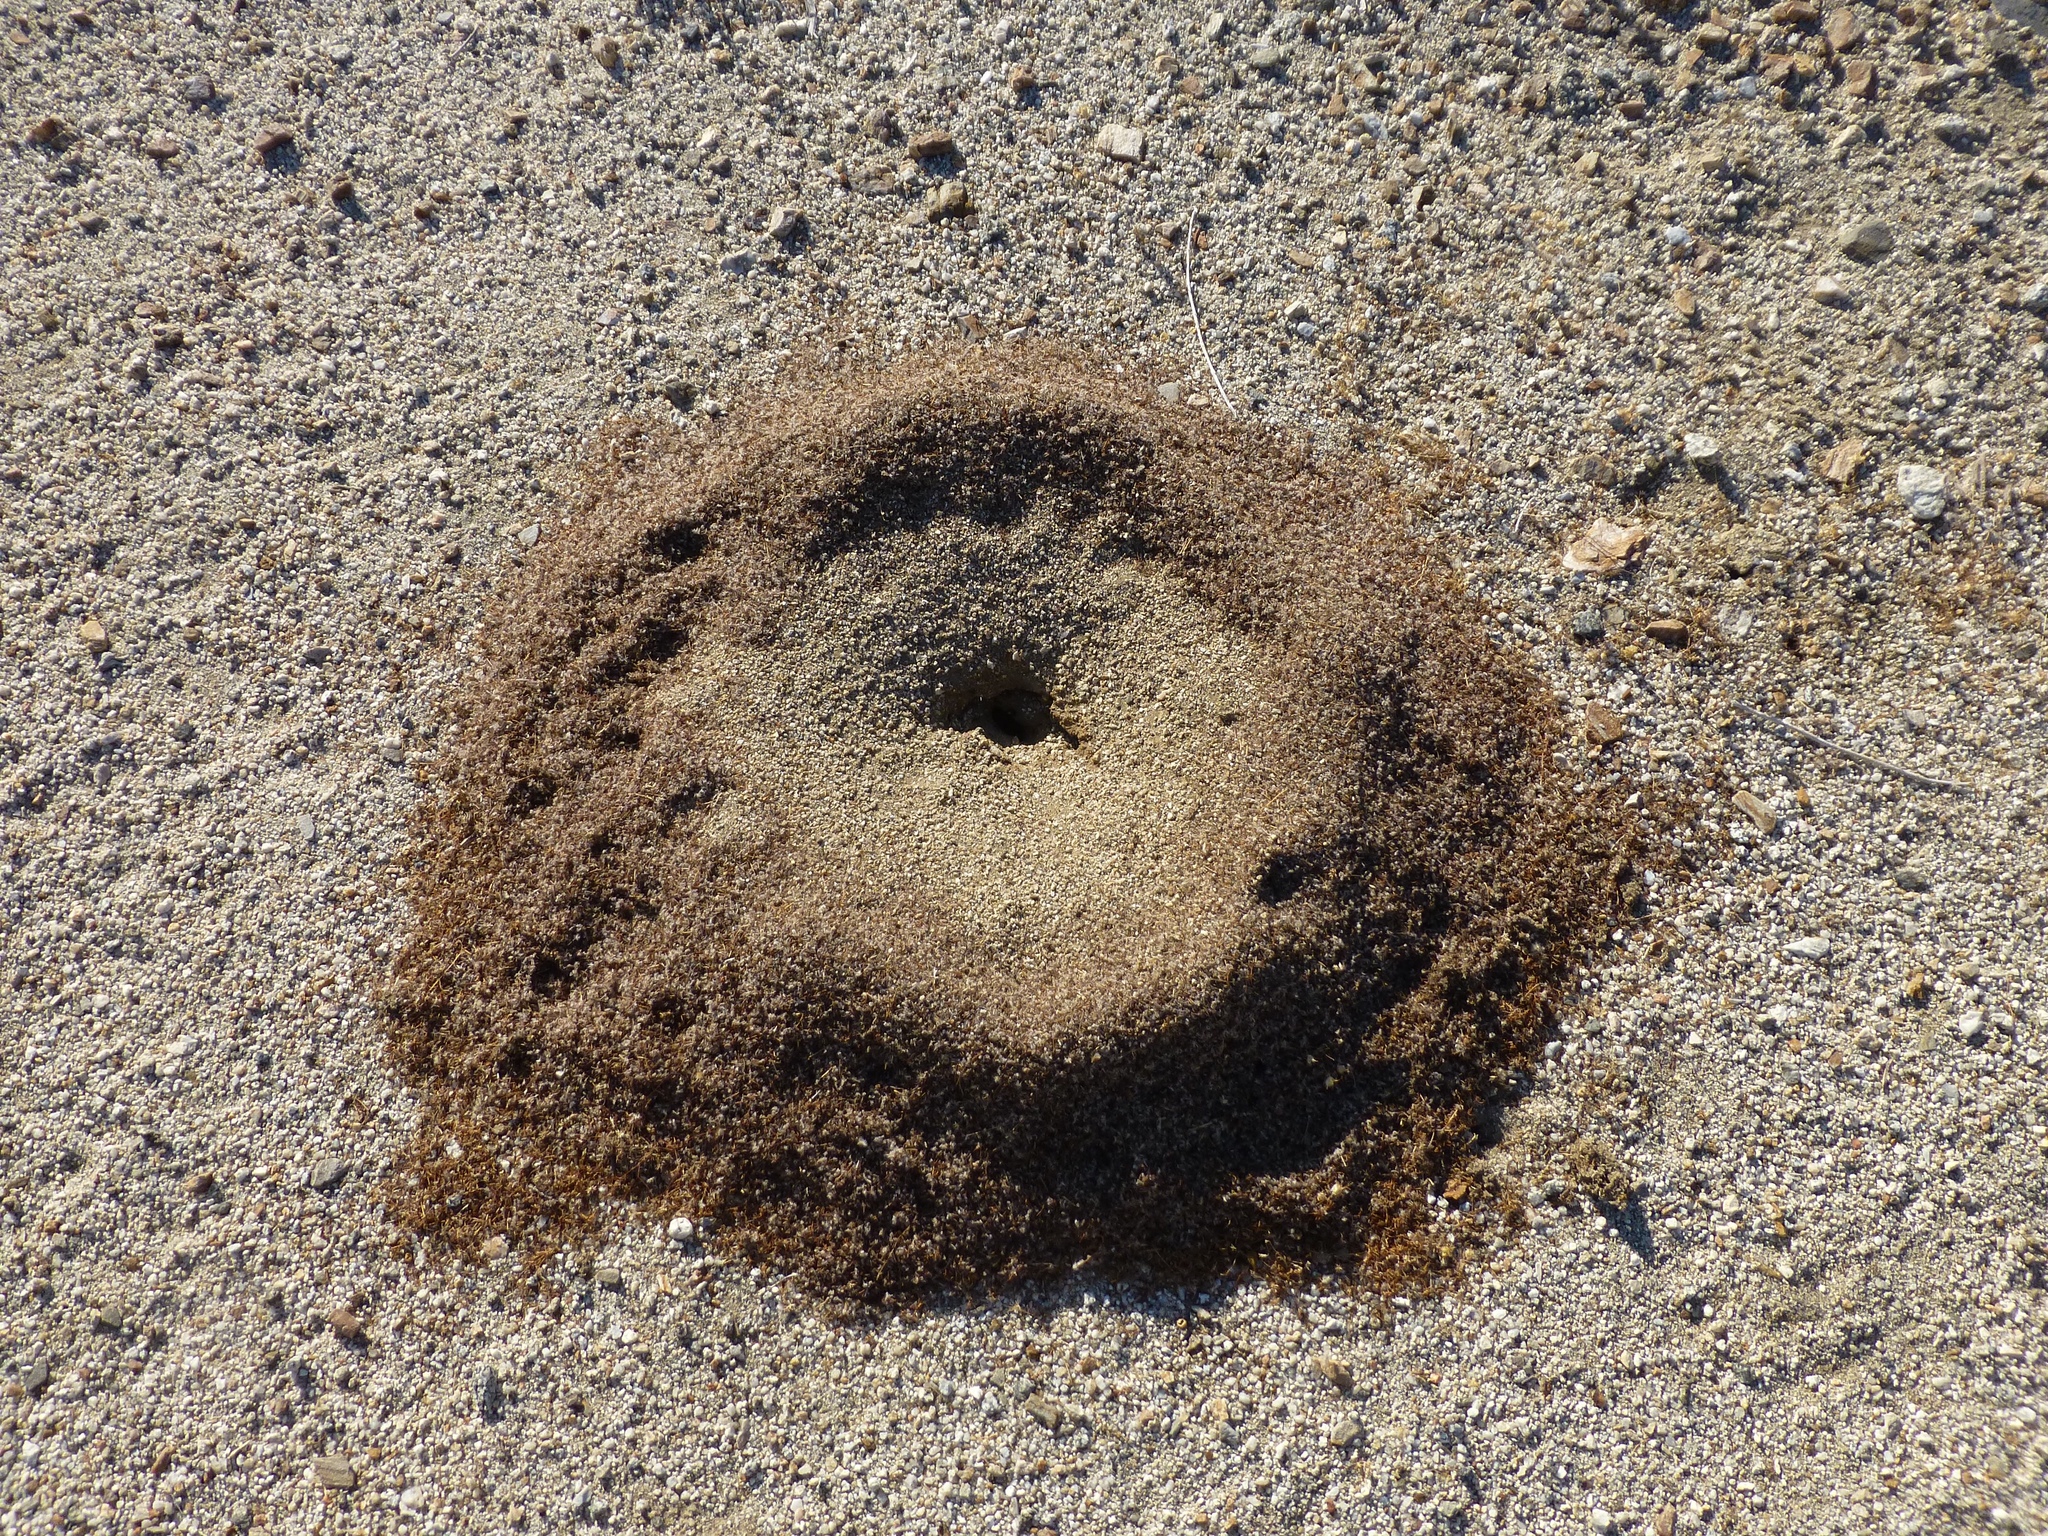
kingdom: Animalia
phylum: Arthropoda
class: Insecta
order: Hymenoptera
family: Formicidae
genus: Messor
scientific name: Messor pergandei
